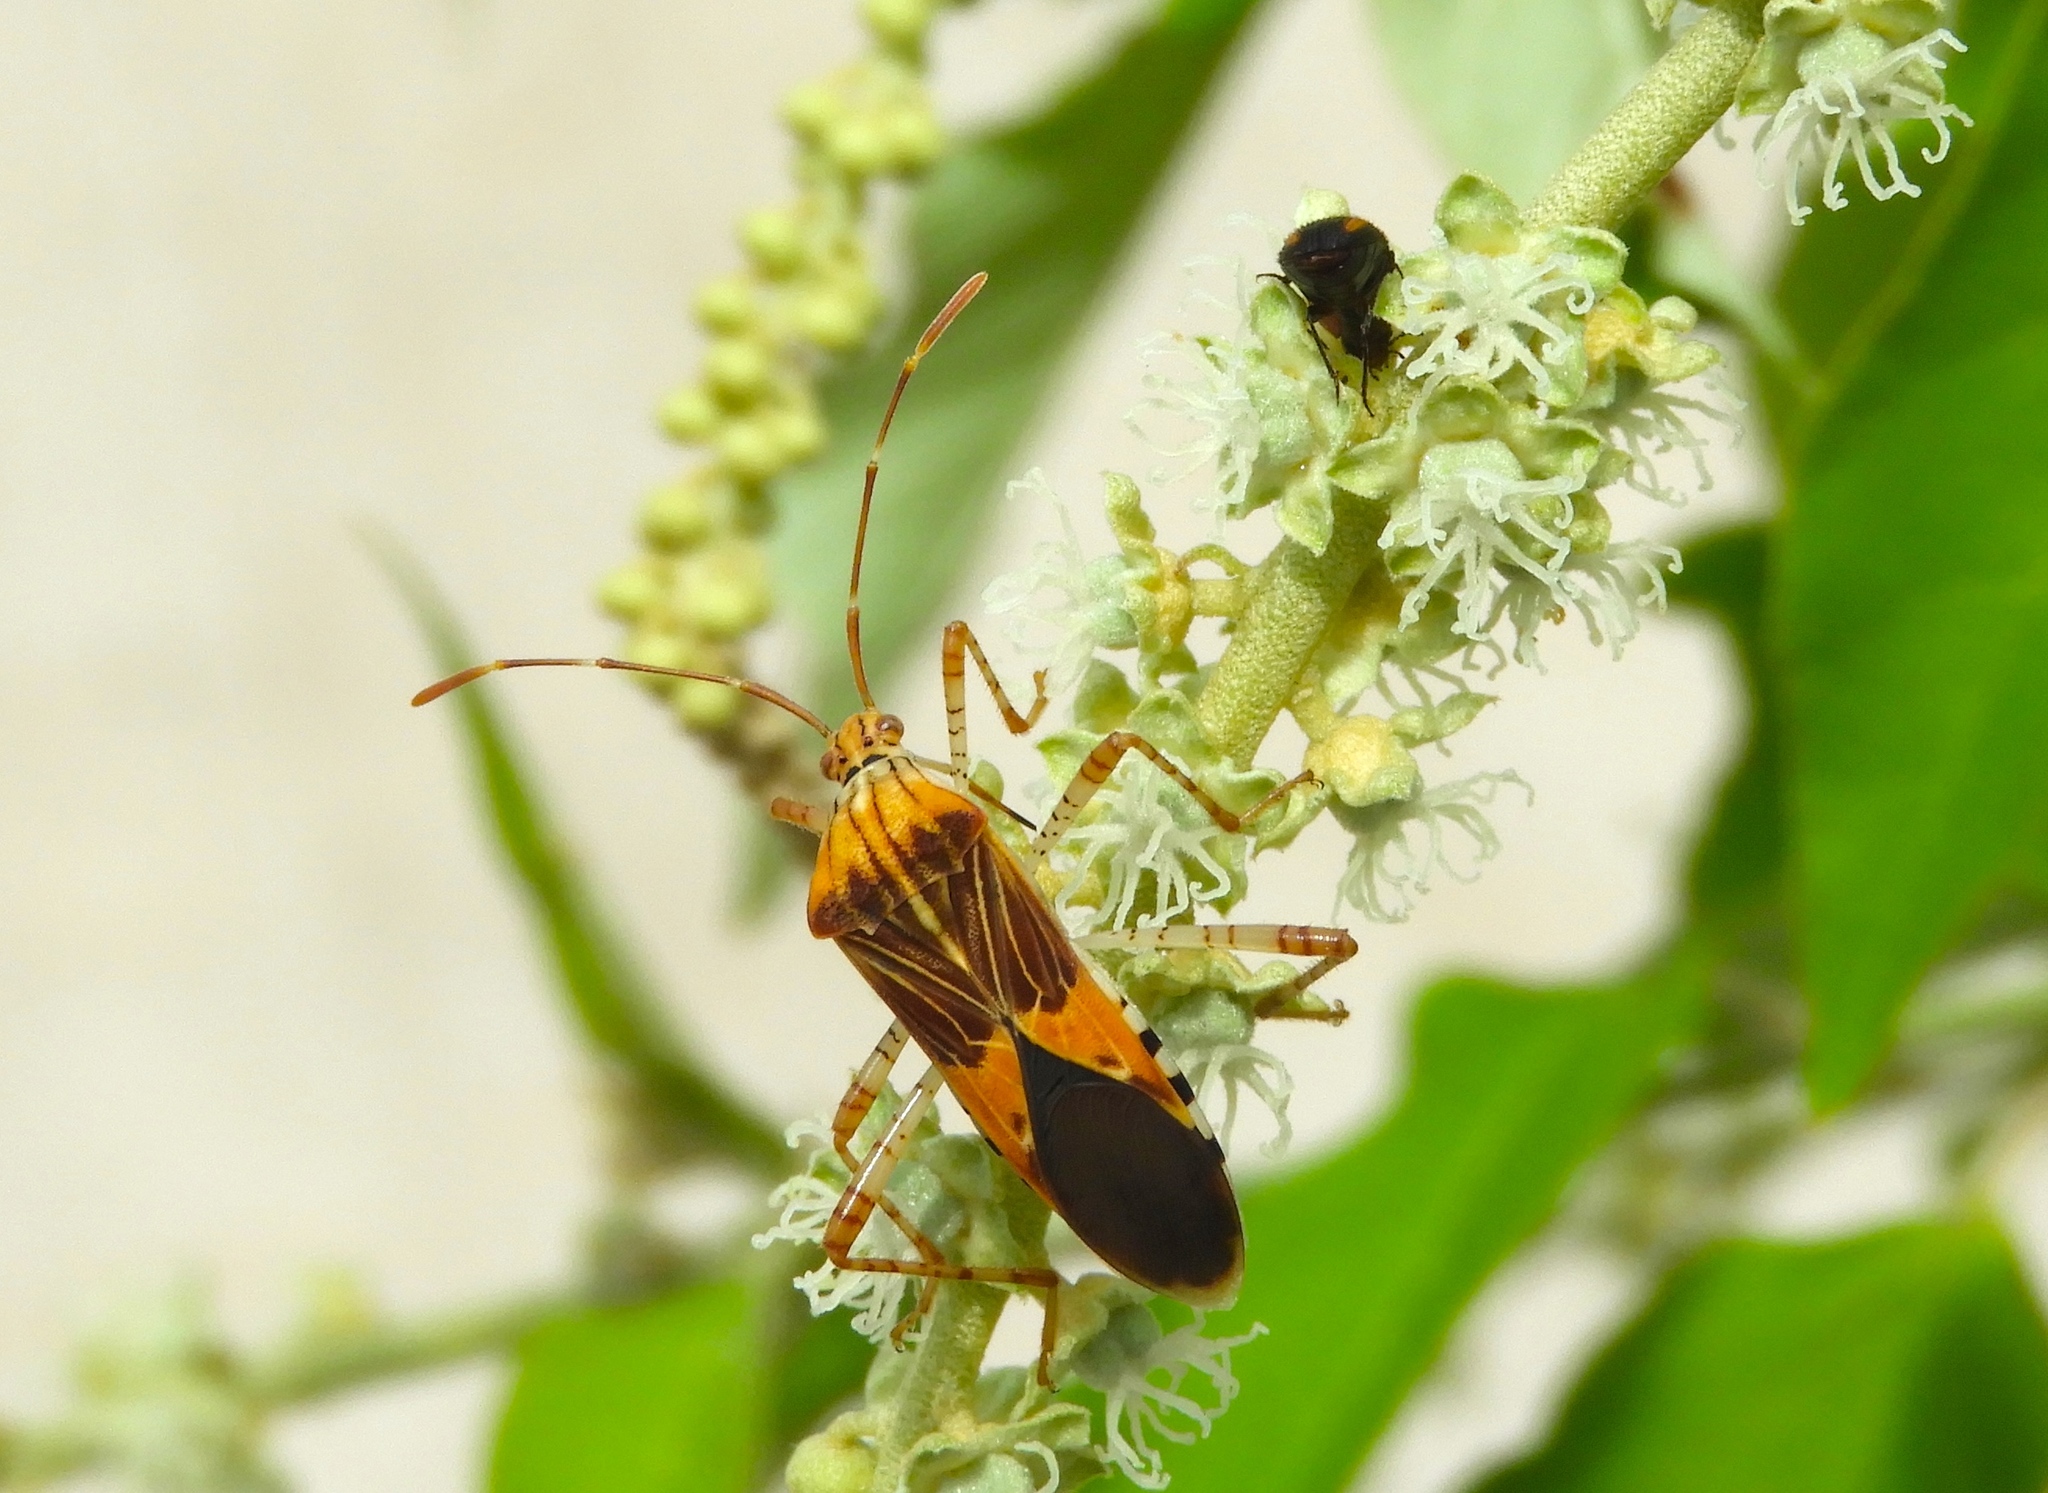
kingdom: Animalia
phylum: Arthropoda
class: Insecta
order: Hemiptera
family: Coreidae
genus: Hypselonotus
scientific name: Hypselonotus
